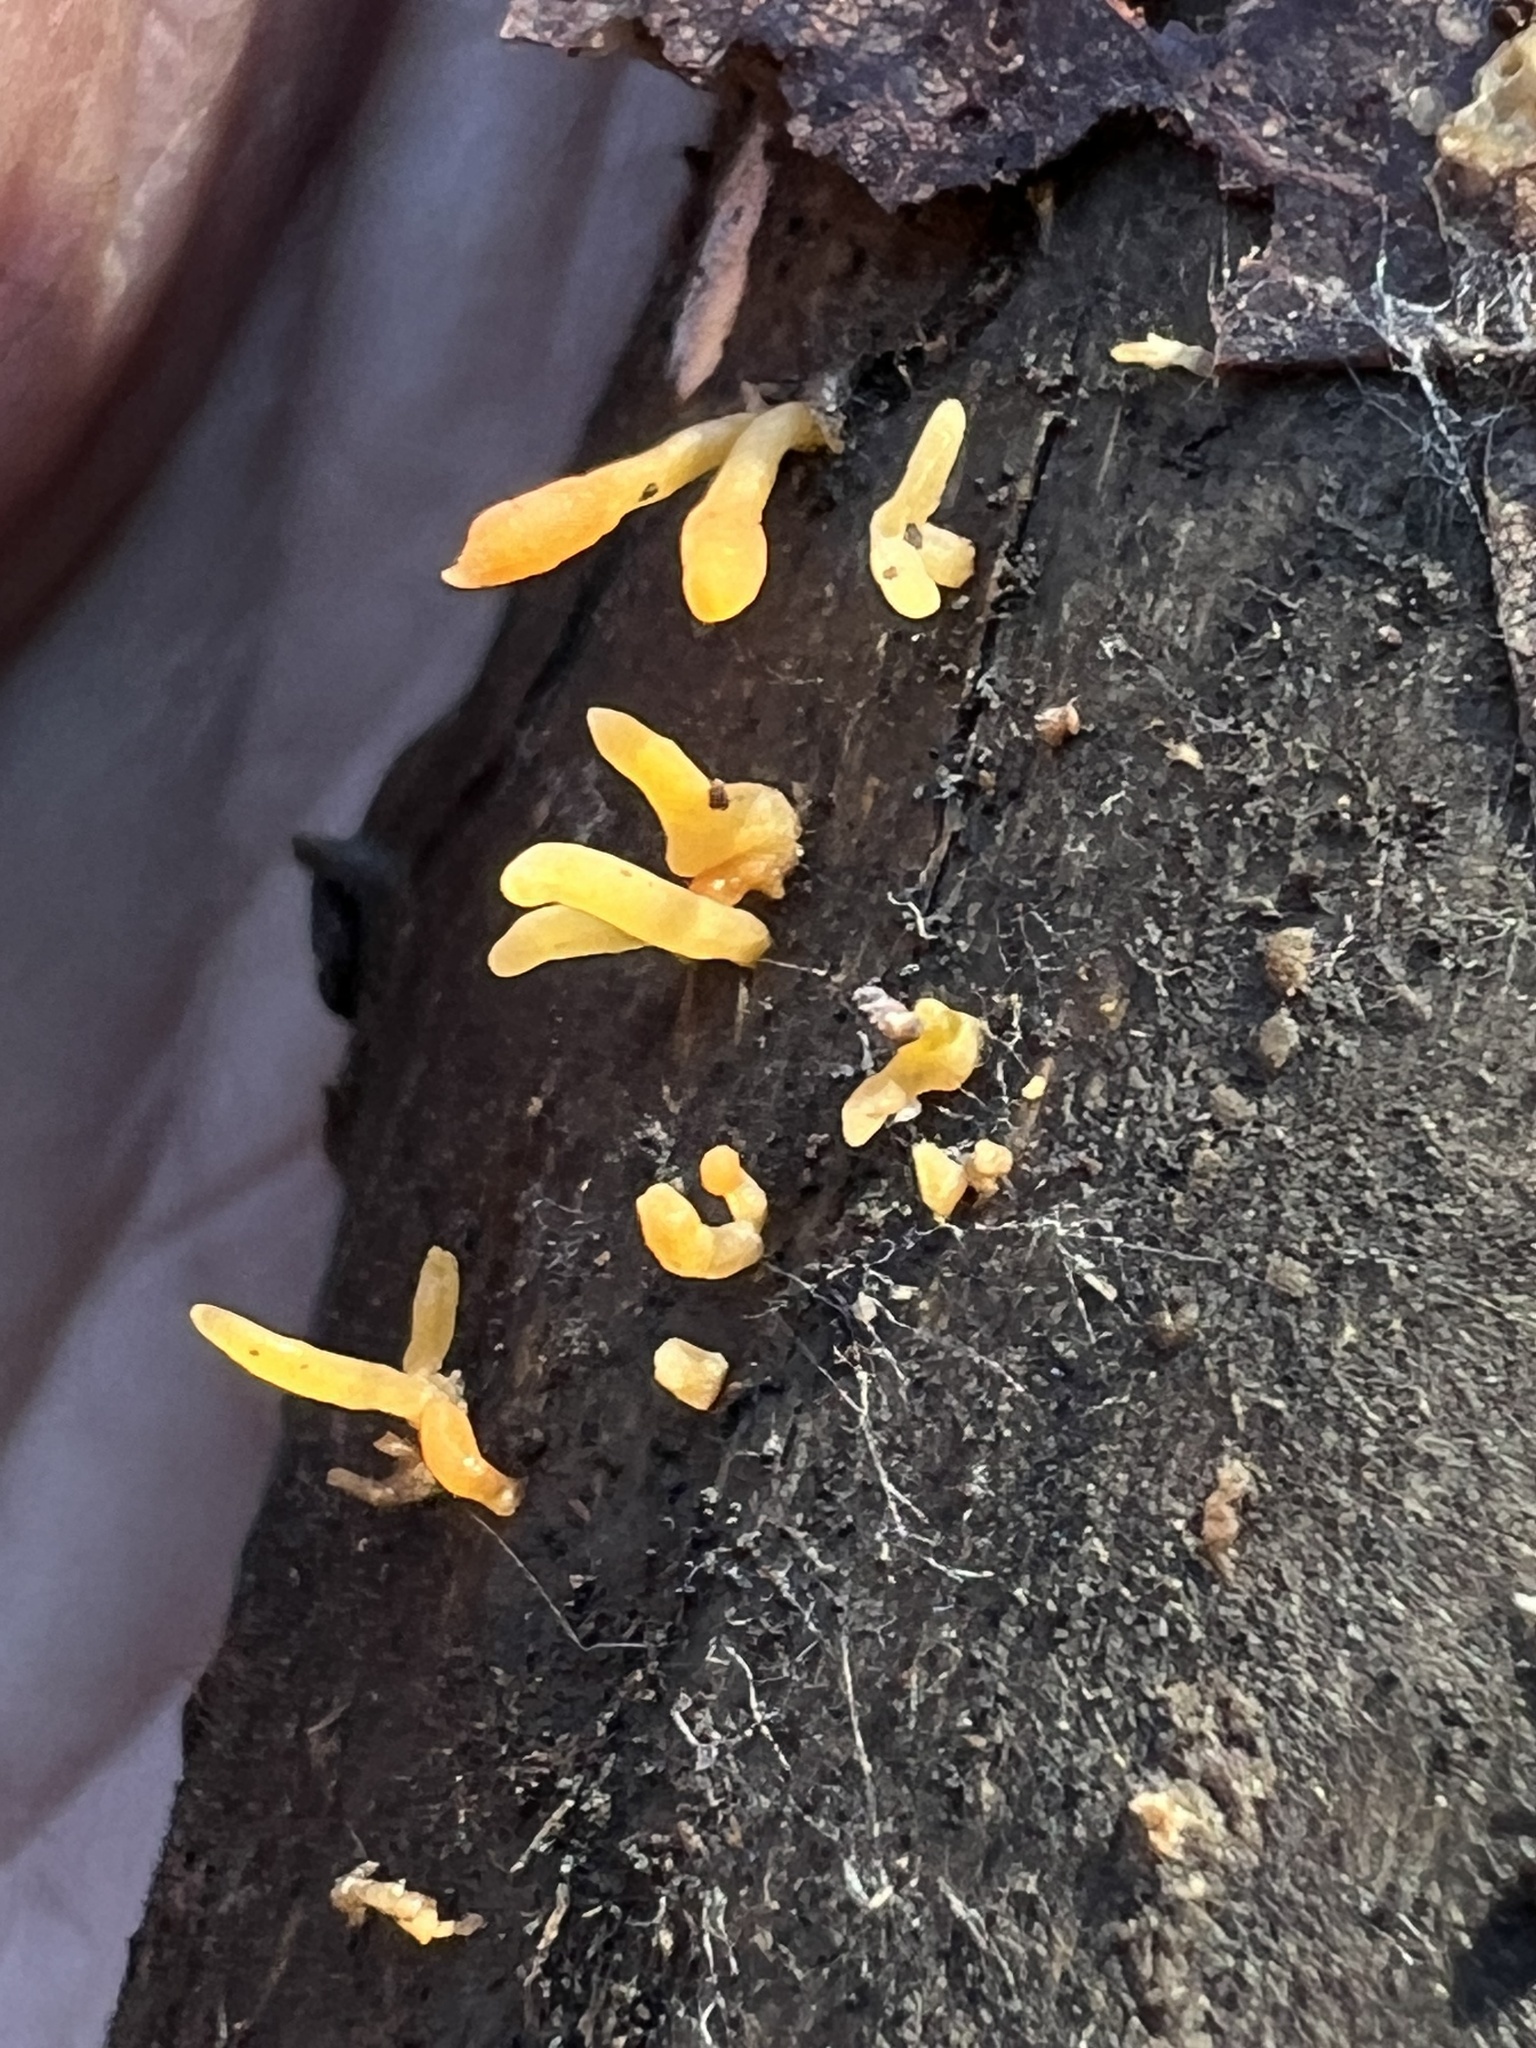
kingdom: Fungi
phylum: Basidiomycota
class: Dacrymycetes
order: Dacrymycetales
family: Dacrymycetaceae
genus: Calocera
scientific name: Calocera cornea
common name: Small stagshorn
